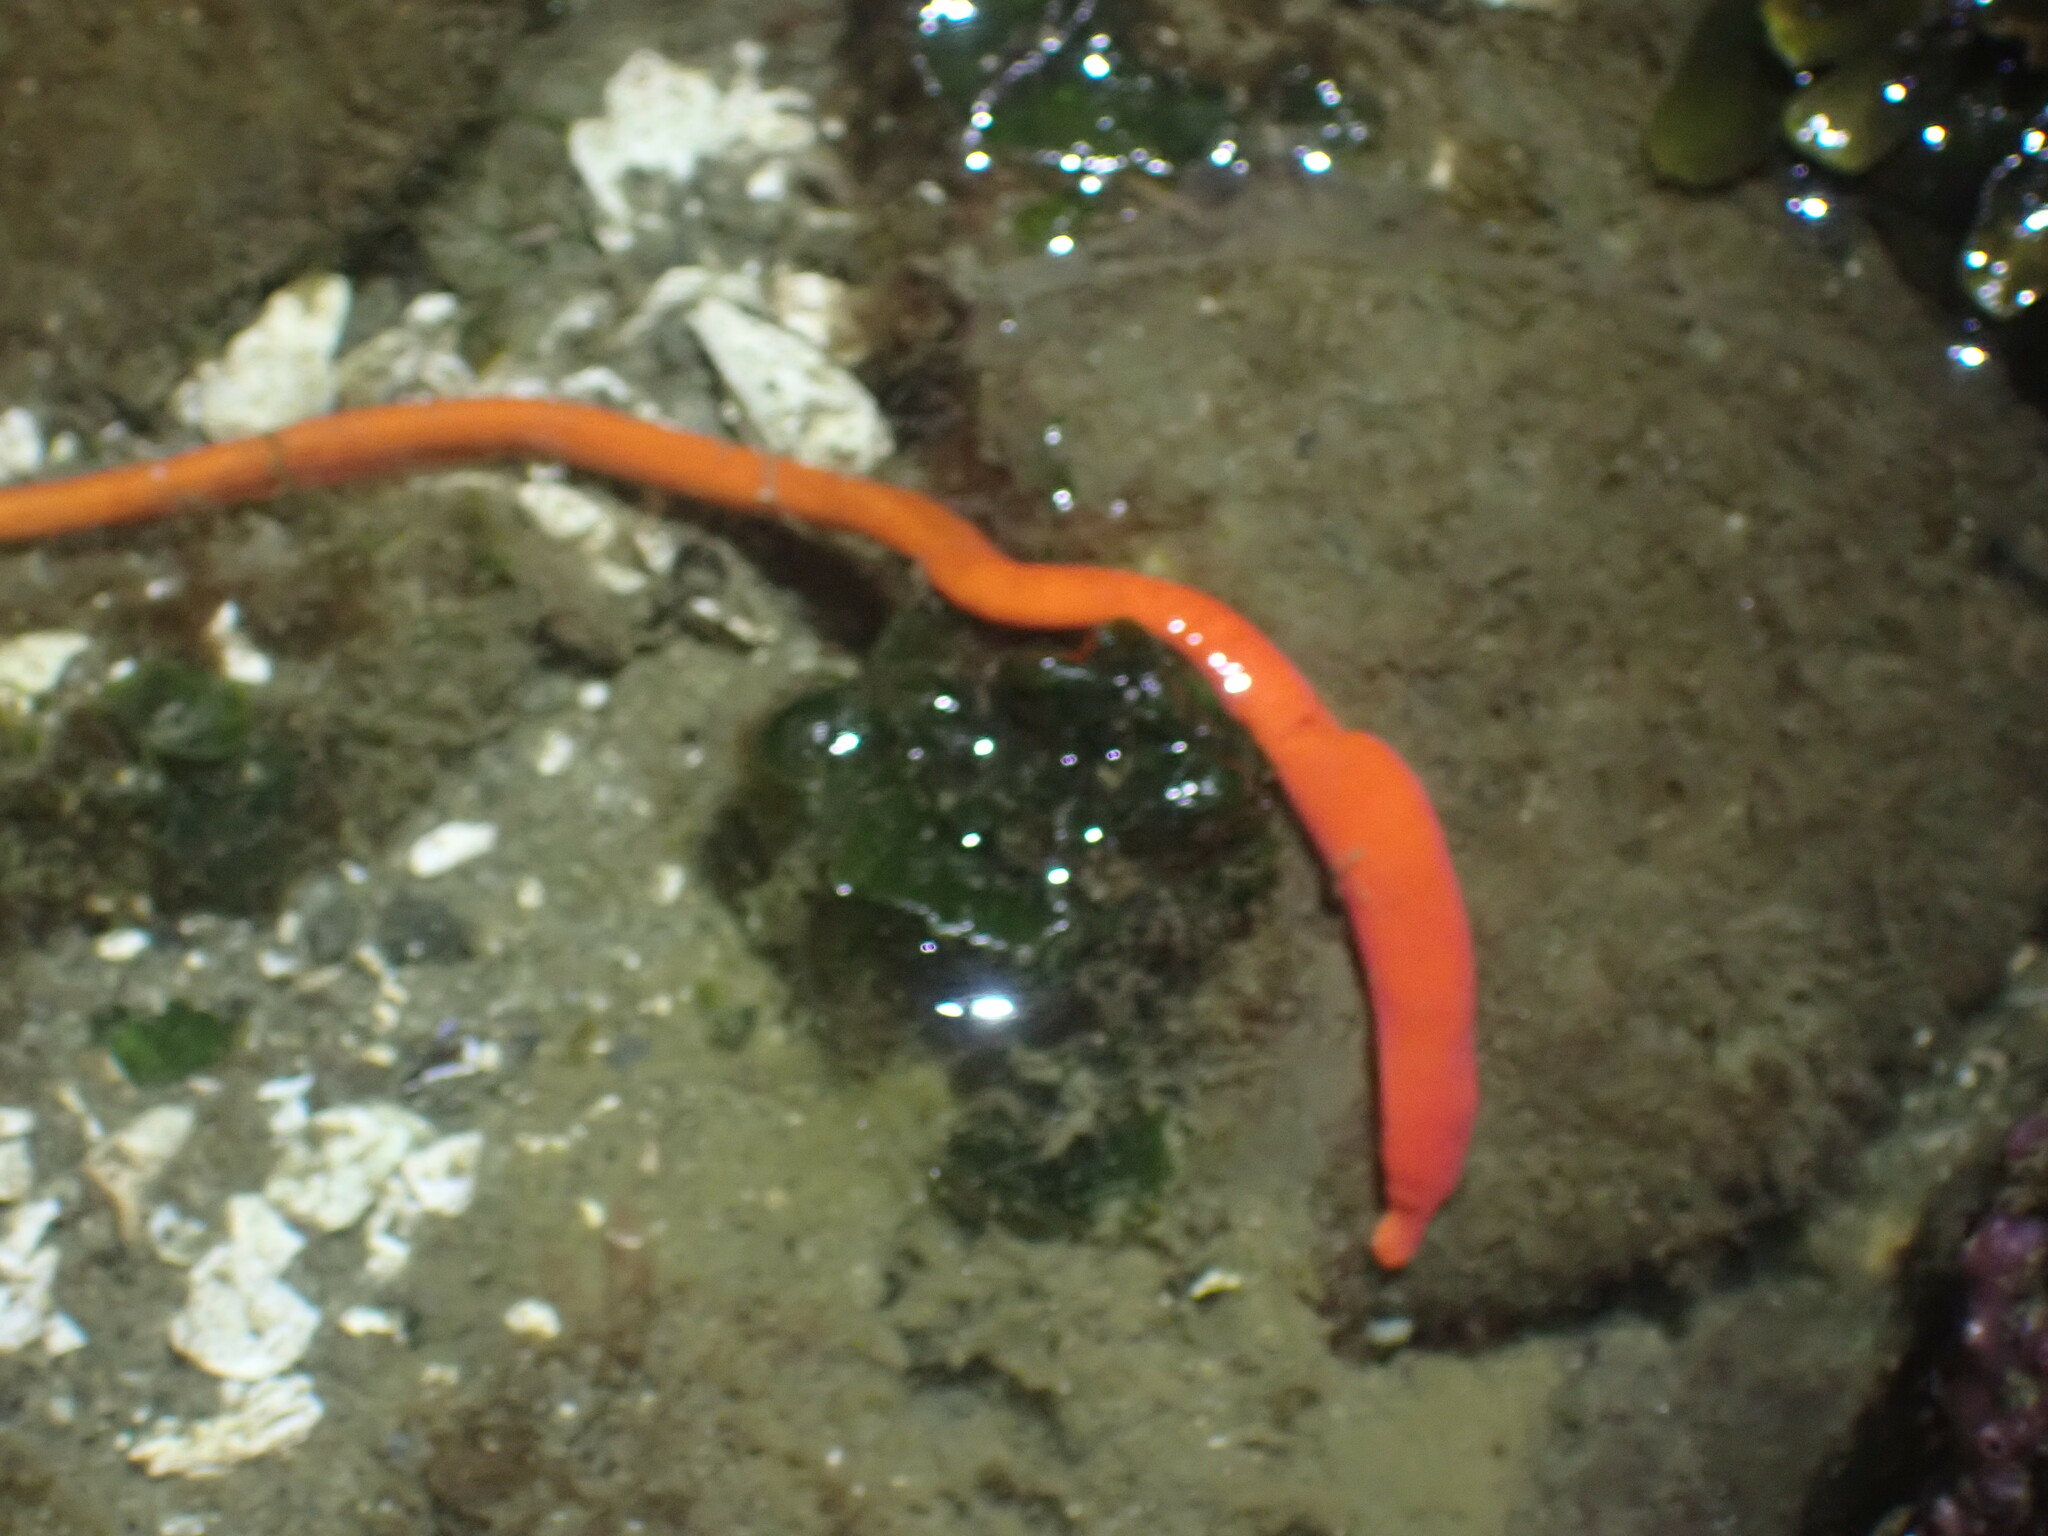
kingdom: Animalia
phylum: Nemertea
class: Palaeonemertea
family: Tubulanidae
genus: Tubulanus
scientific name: Tubulanus polymorphus
